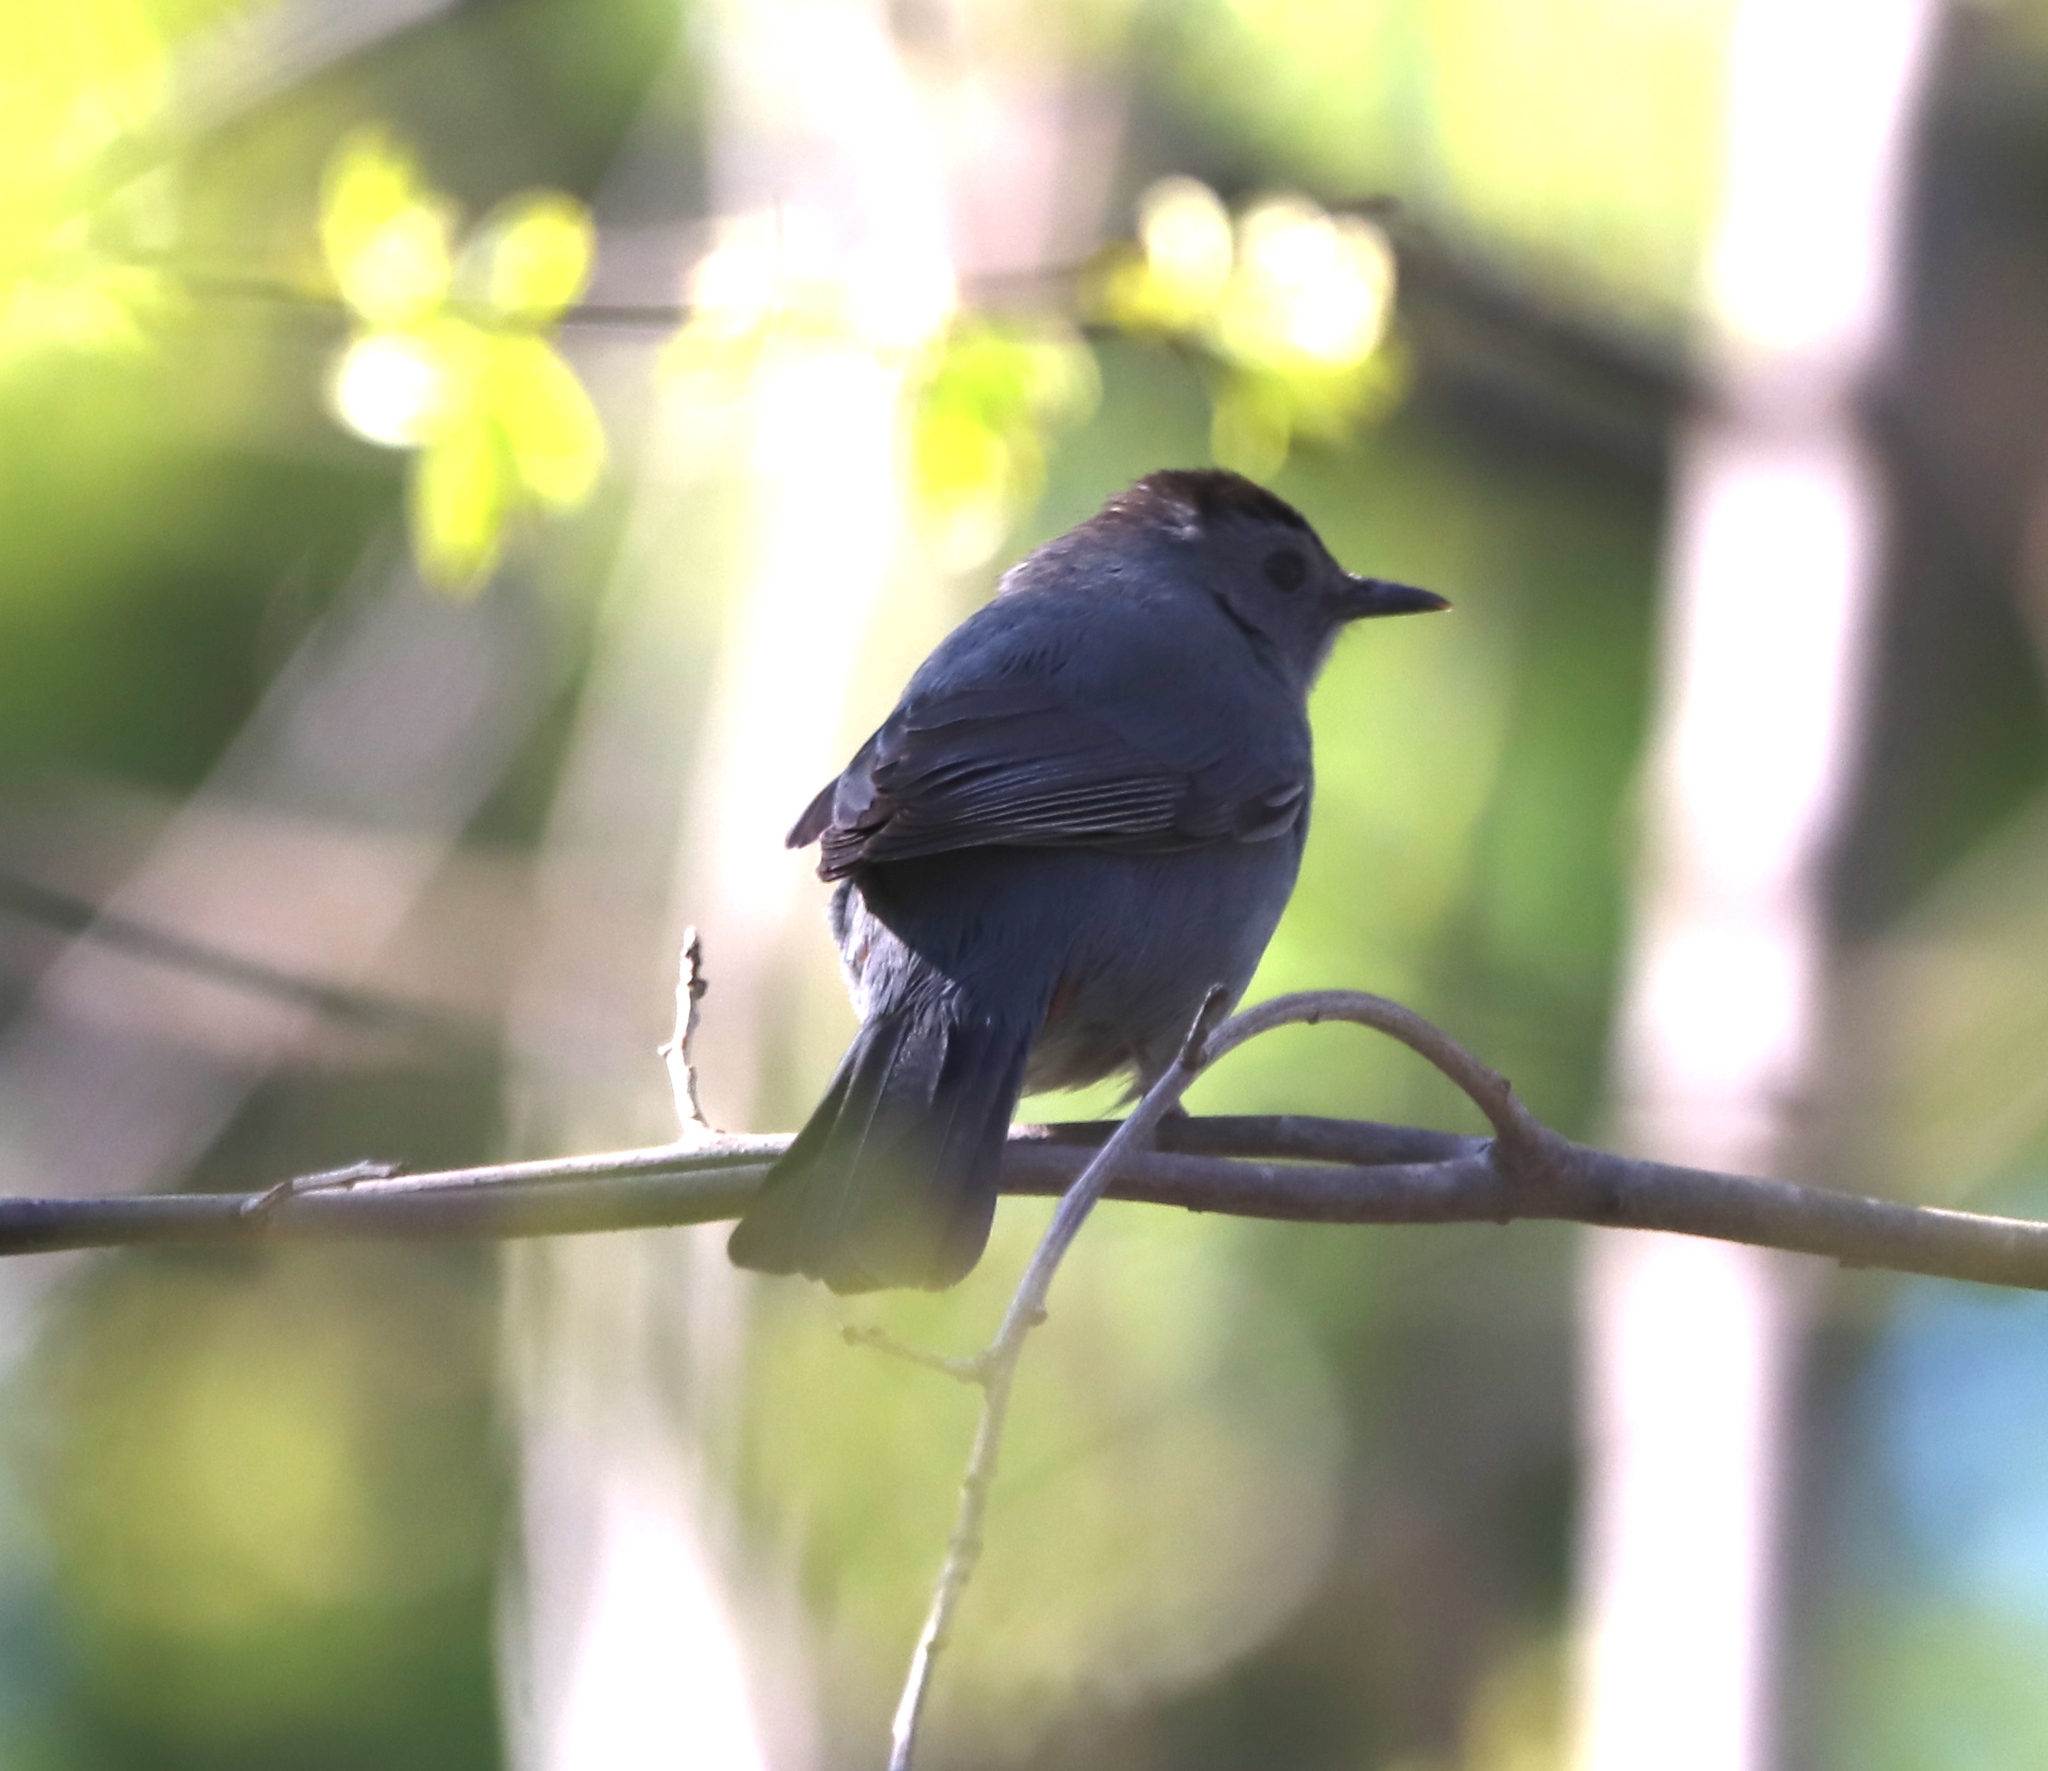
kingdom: Animalia
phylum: Chordata
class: Aves
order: Passeriformes
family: Mimidae
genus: Dumetella
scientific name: Dumetella carolinensis
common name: Gray catbird
